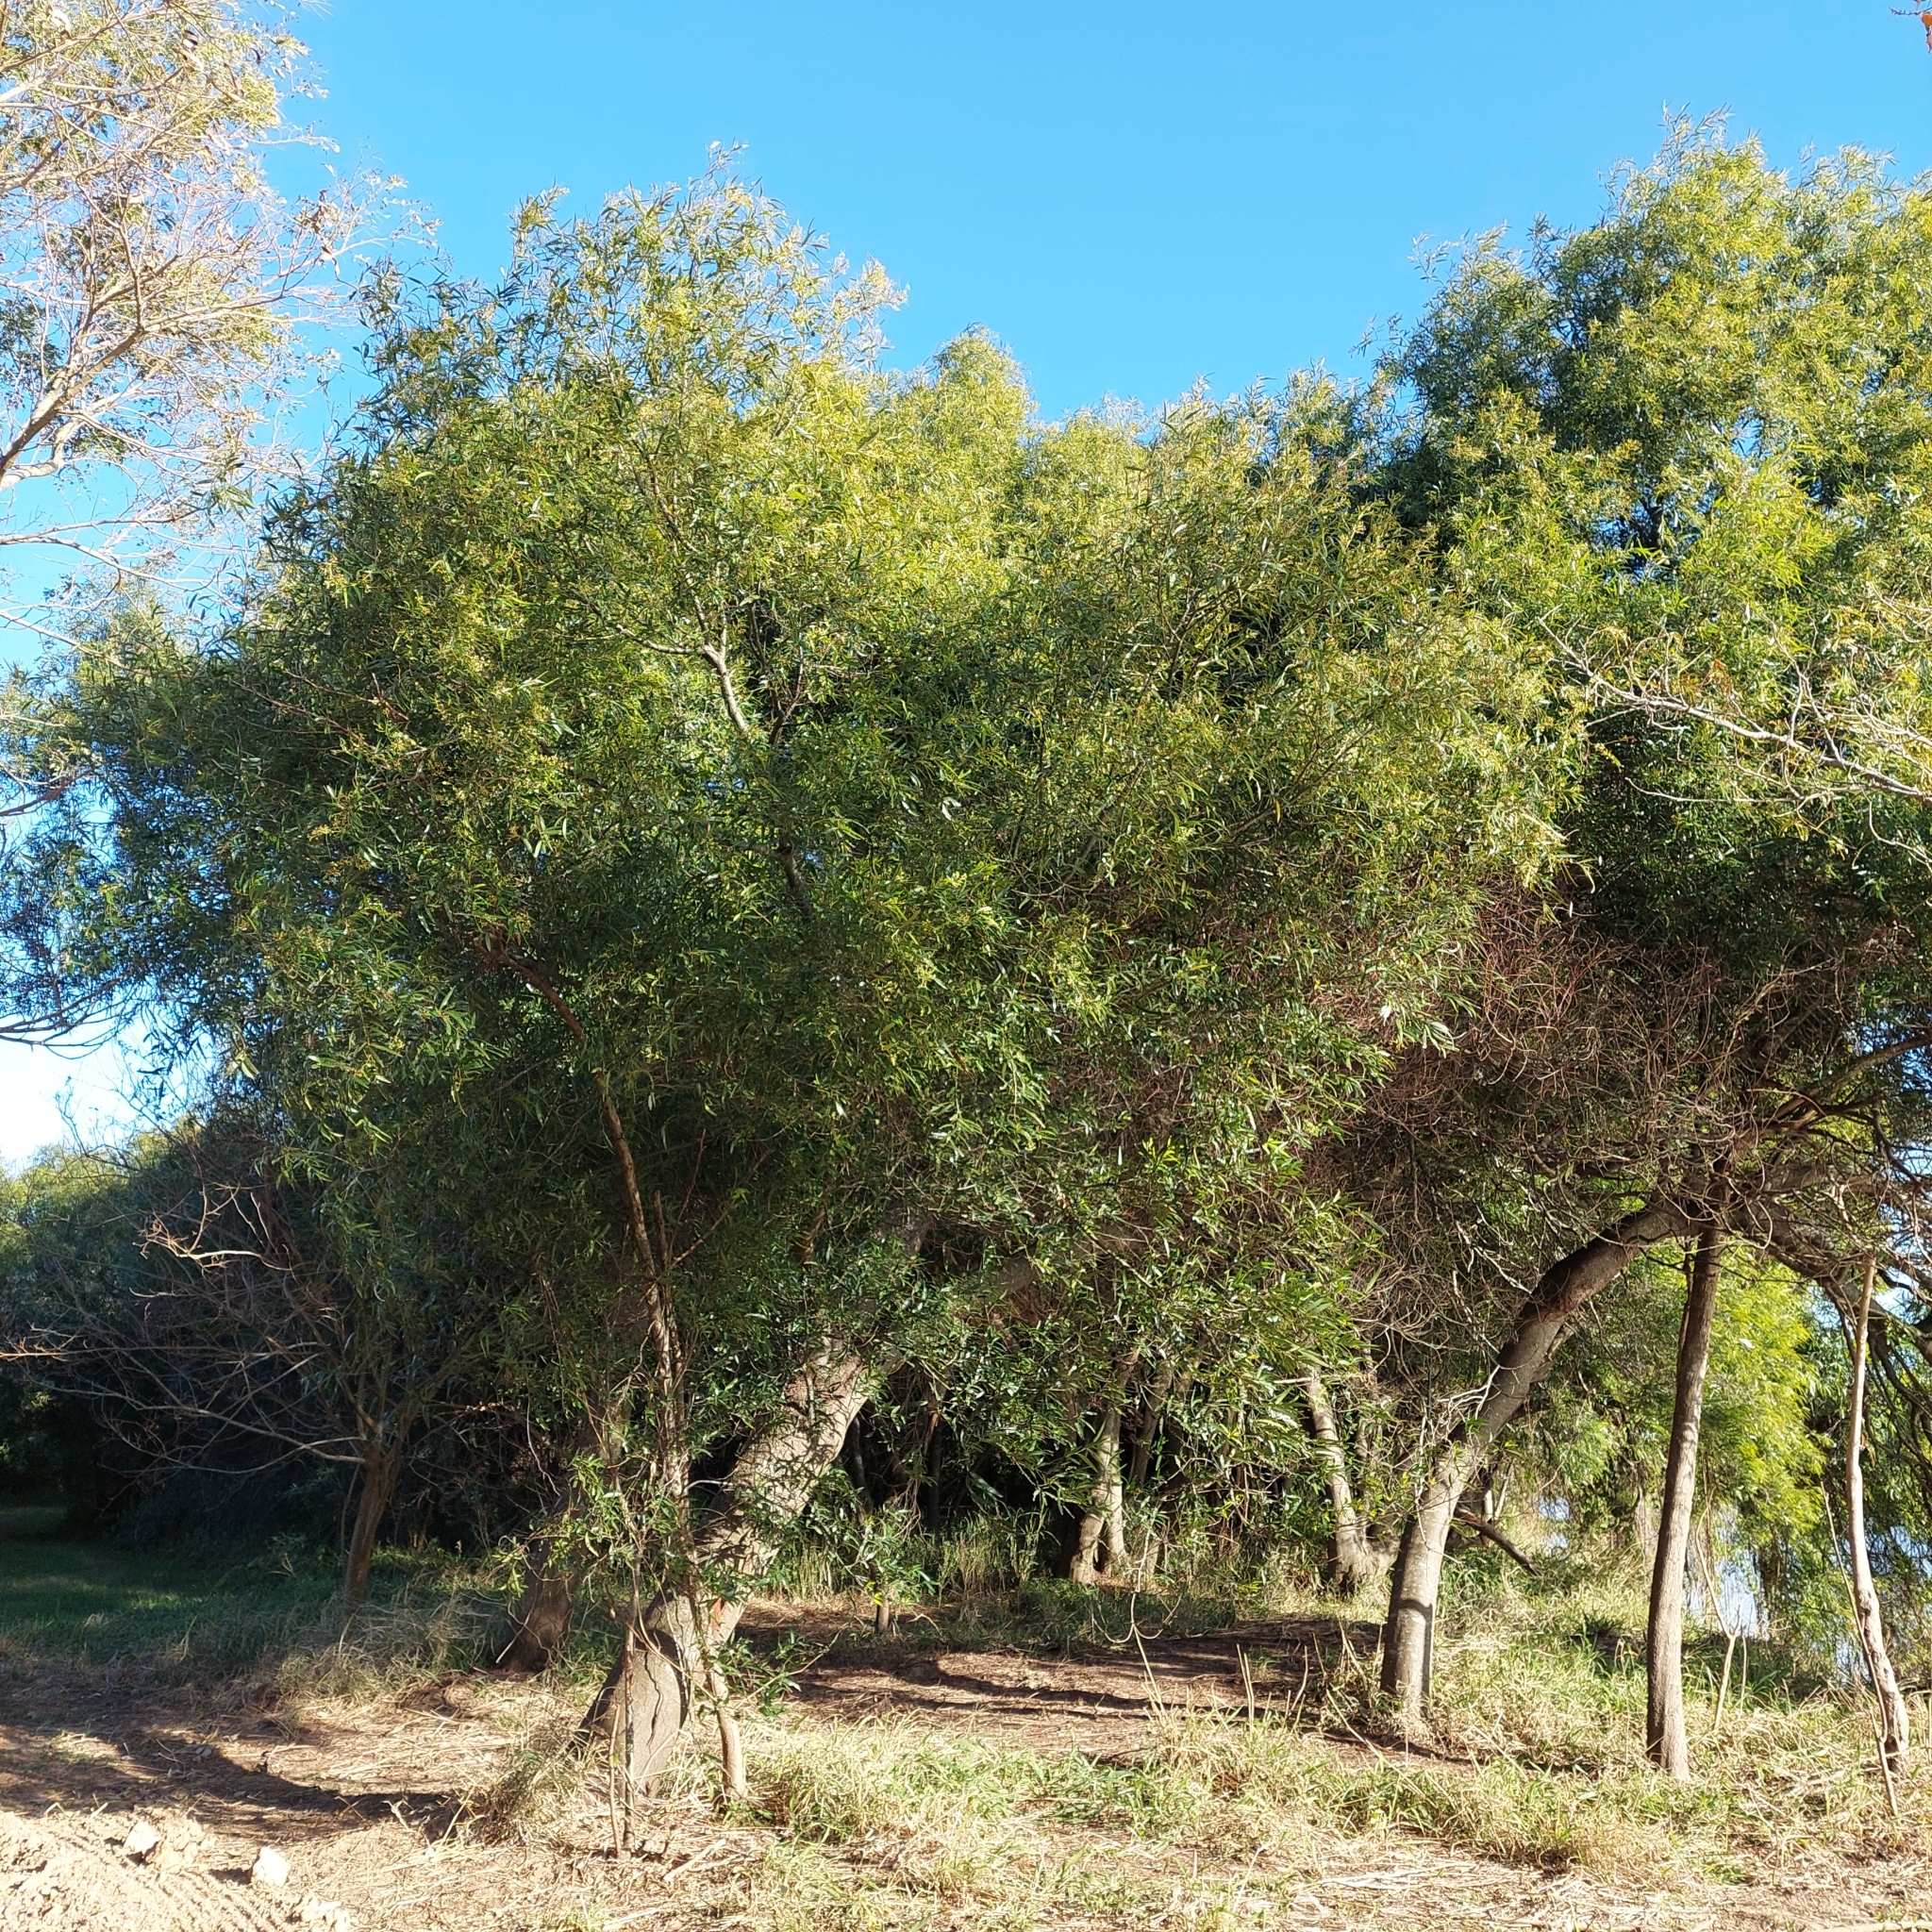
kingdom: Plantae
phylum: Tracheophyta
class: Magnoliopsida
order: Laurales
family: Lauraceae
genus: Nectandra
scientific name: Nectandra angustifolia
